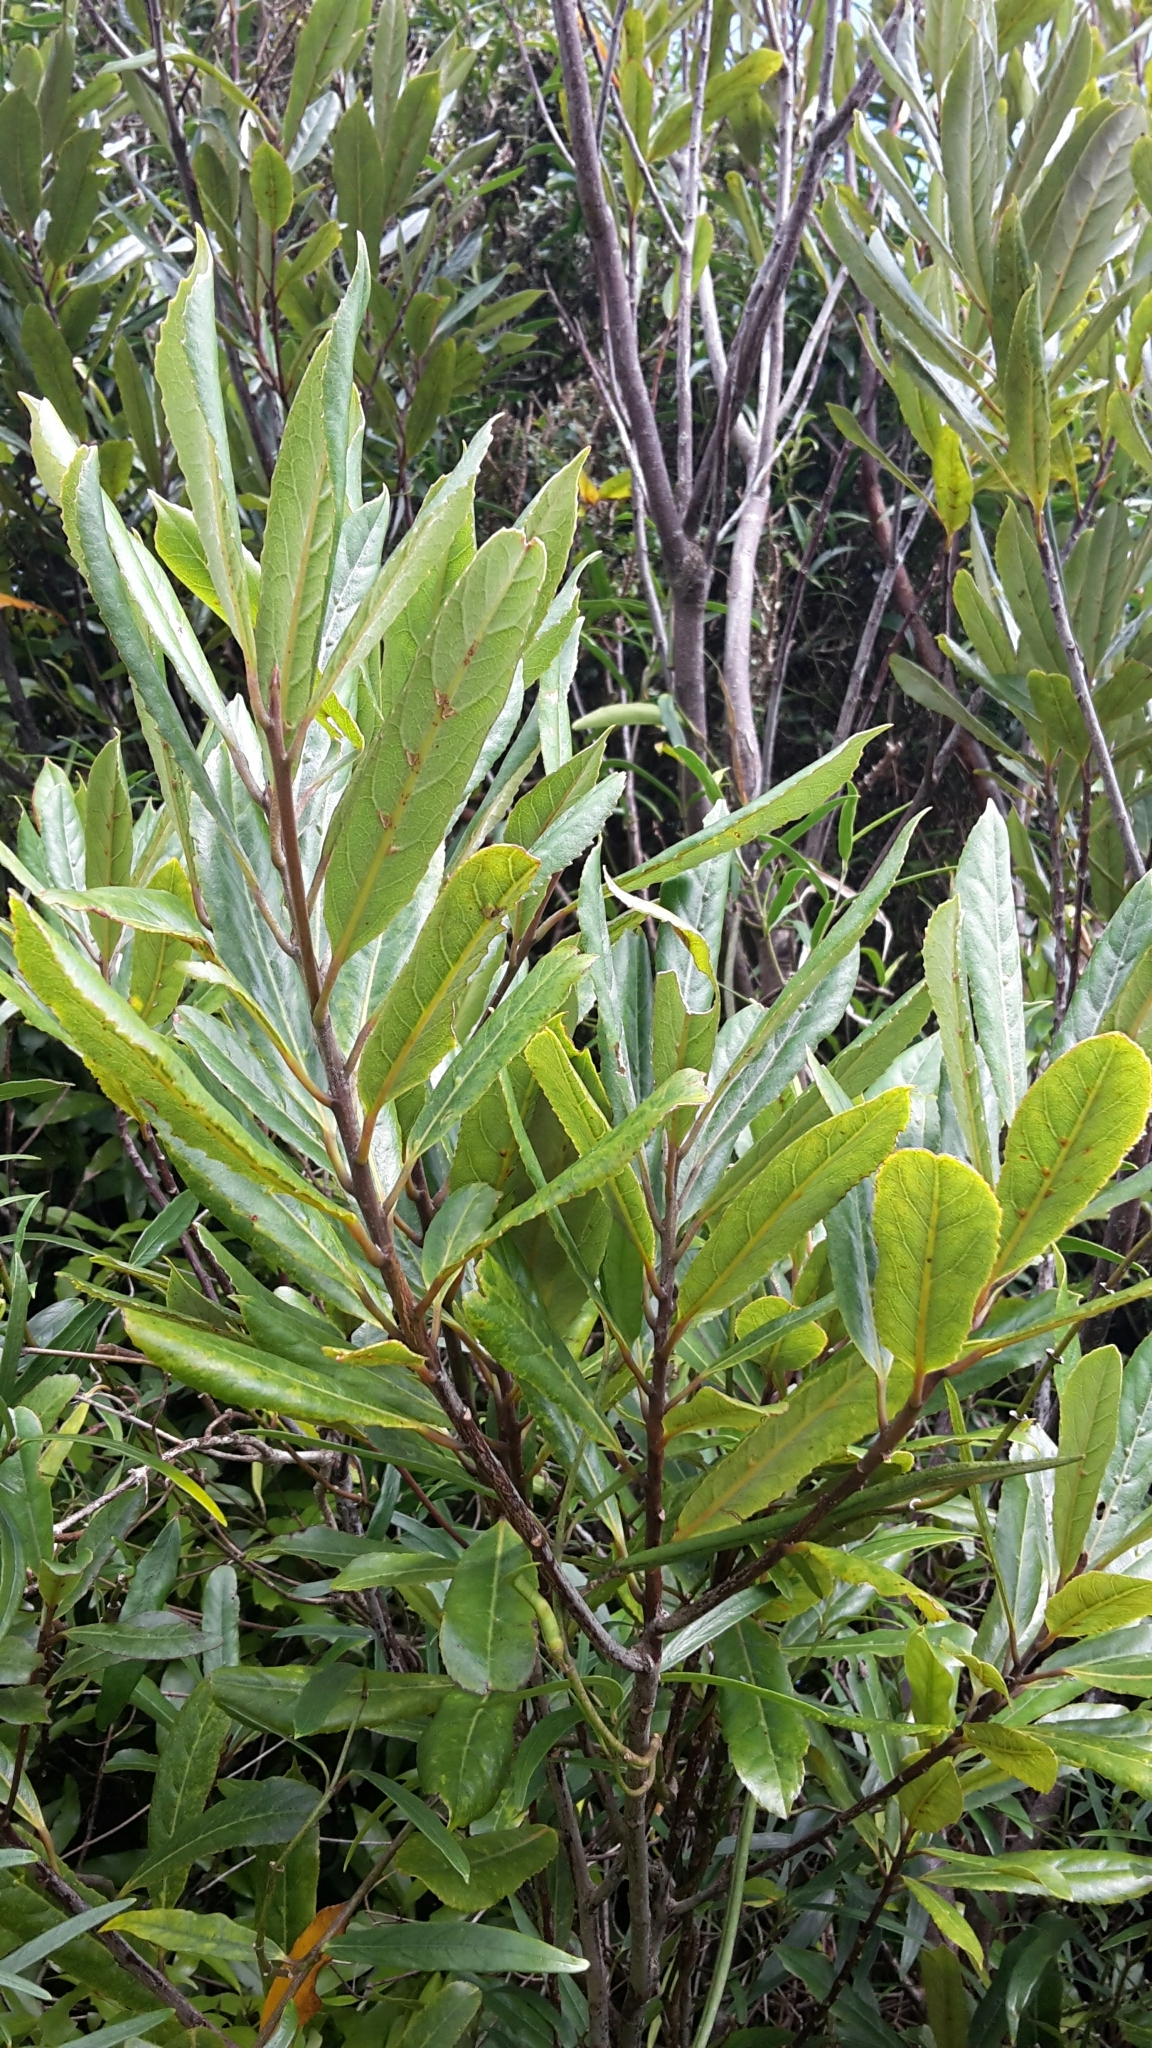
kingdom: Plantae
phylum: Tracheophyta
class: Magnoliopsida
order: Oxalidales
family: Elaeocarpaceae
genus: Elaeocarpus
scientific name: Elaeocarpus dentatus
